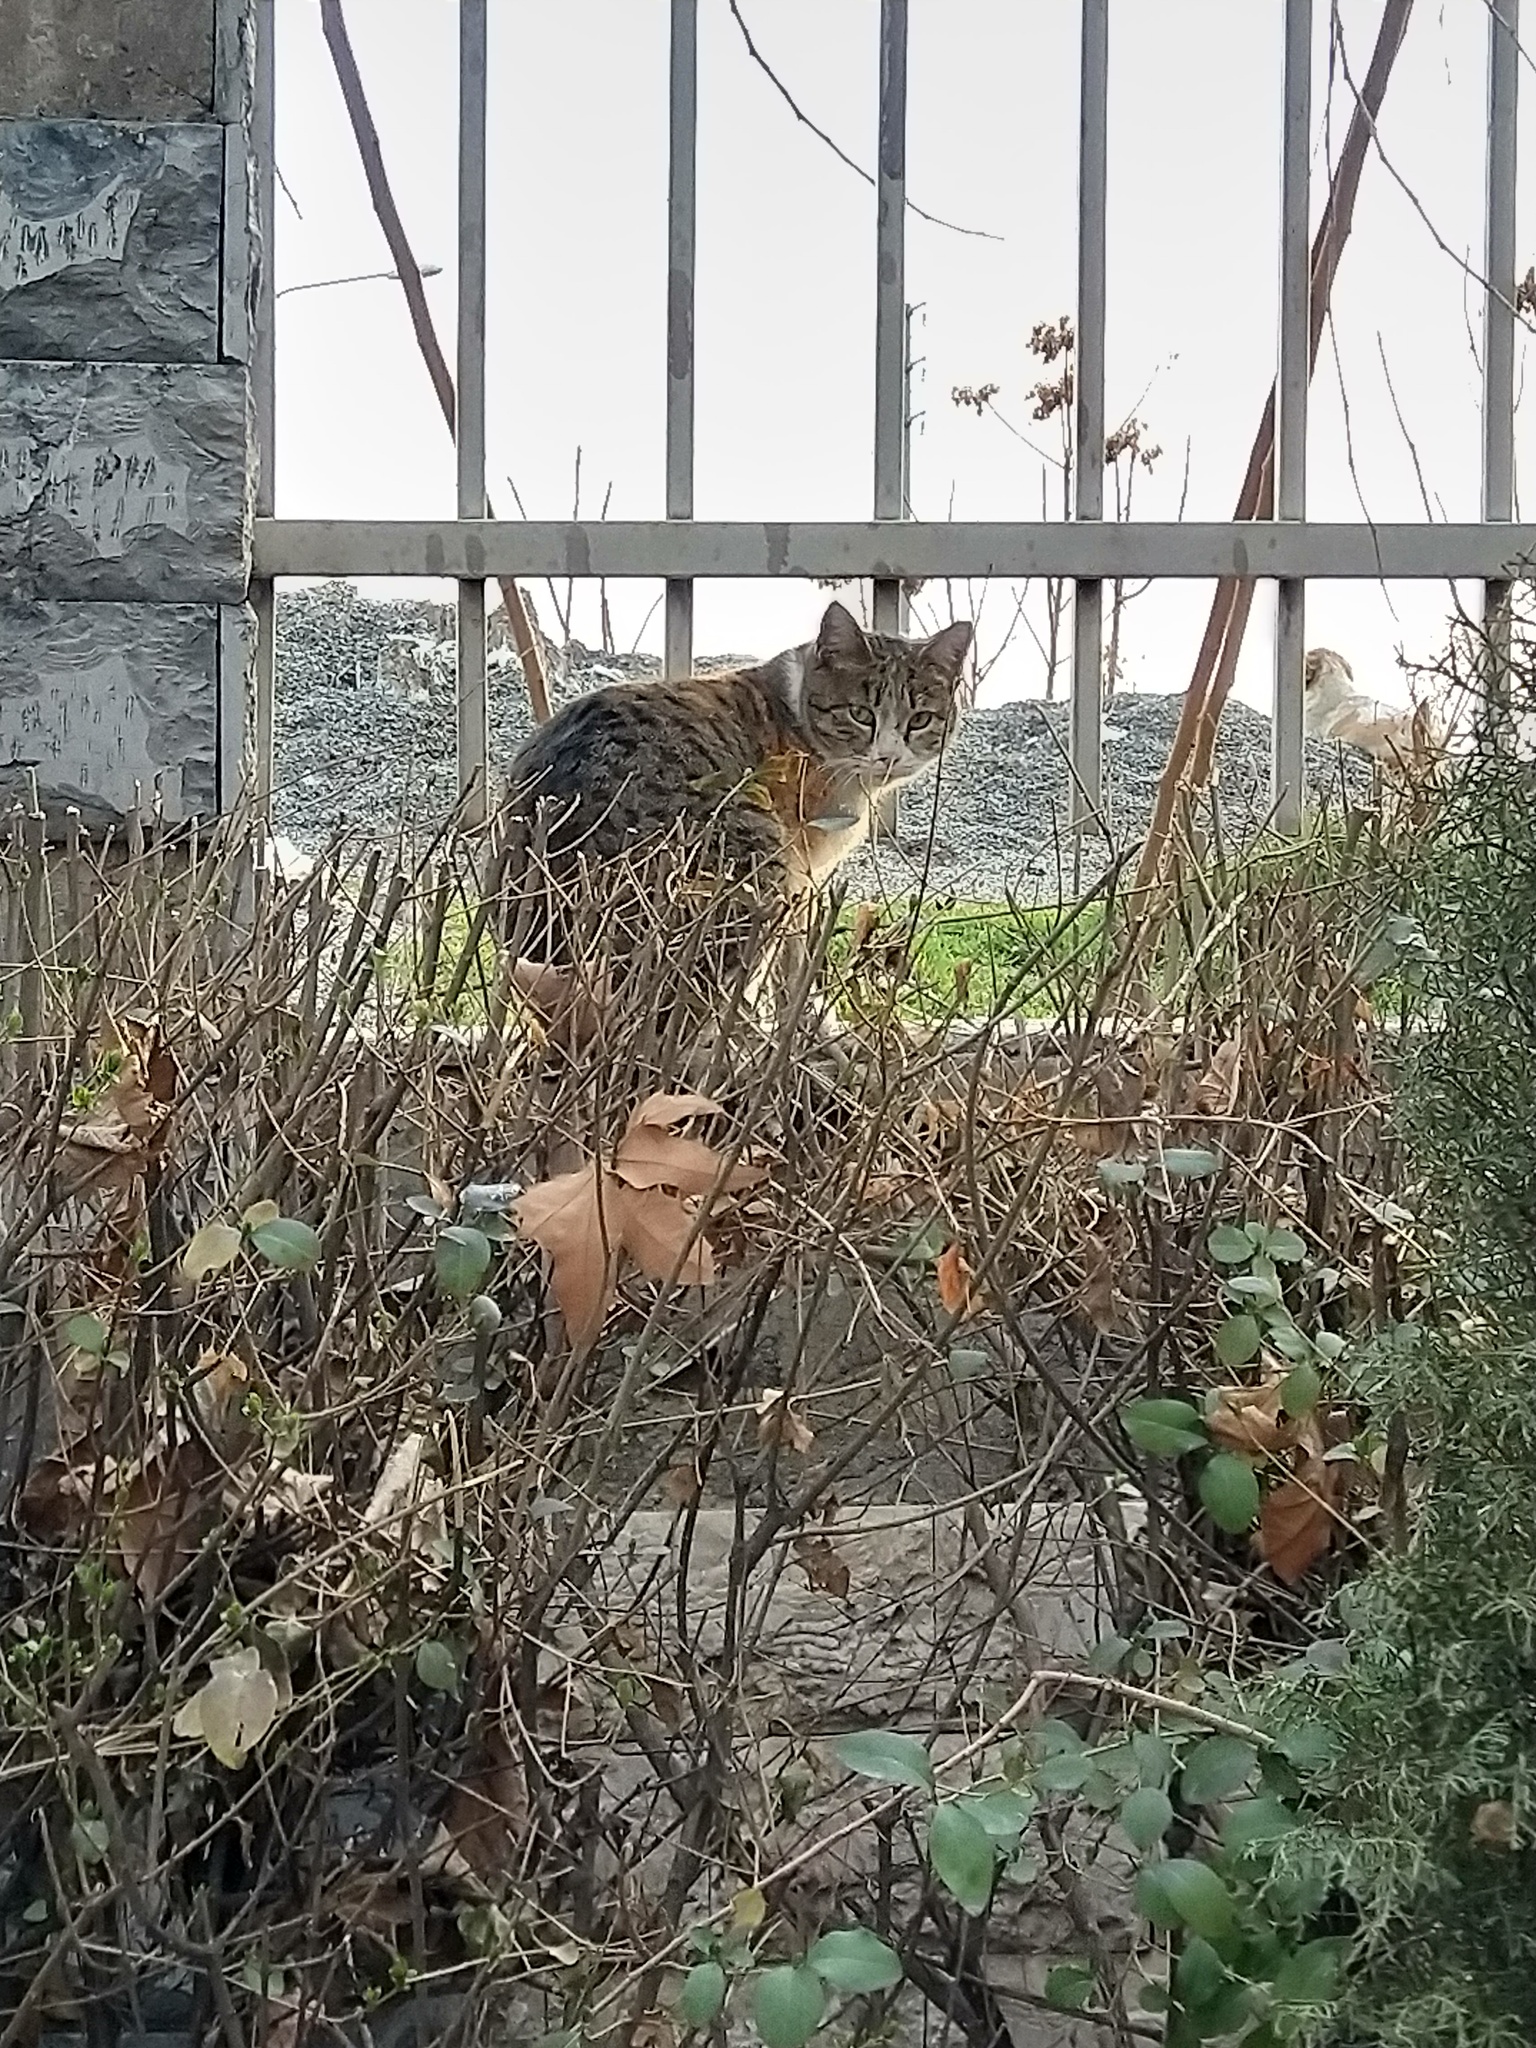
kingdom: Animalia
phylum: Chordata
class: Mammalia
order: Carnivora
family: Felidae
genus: Felis
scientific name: Felis catus
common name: Domestic cat
